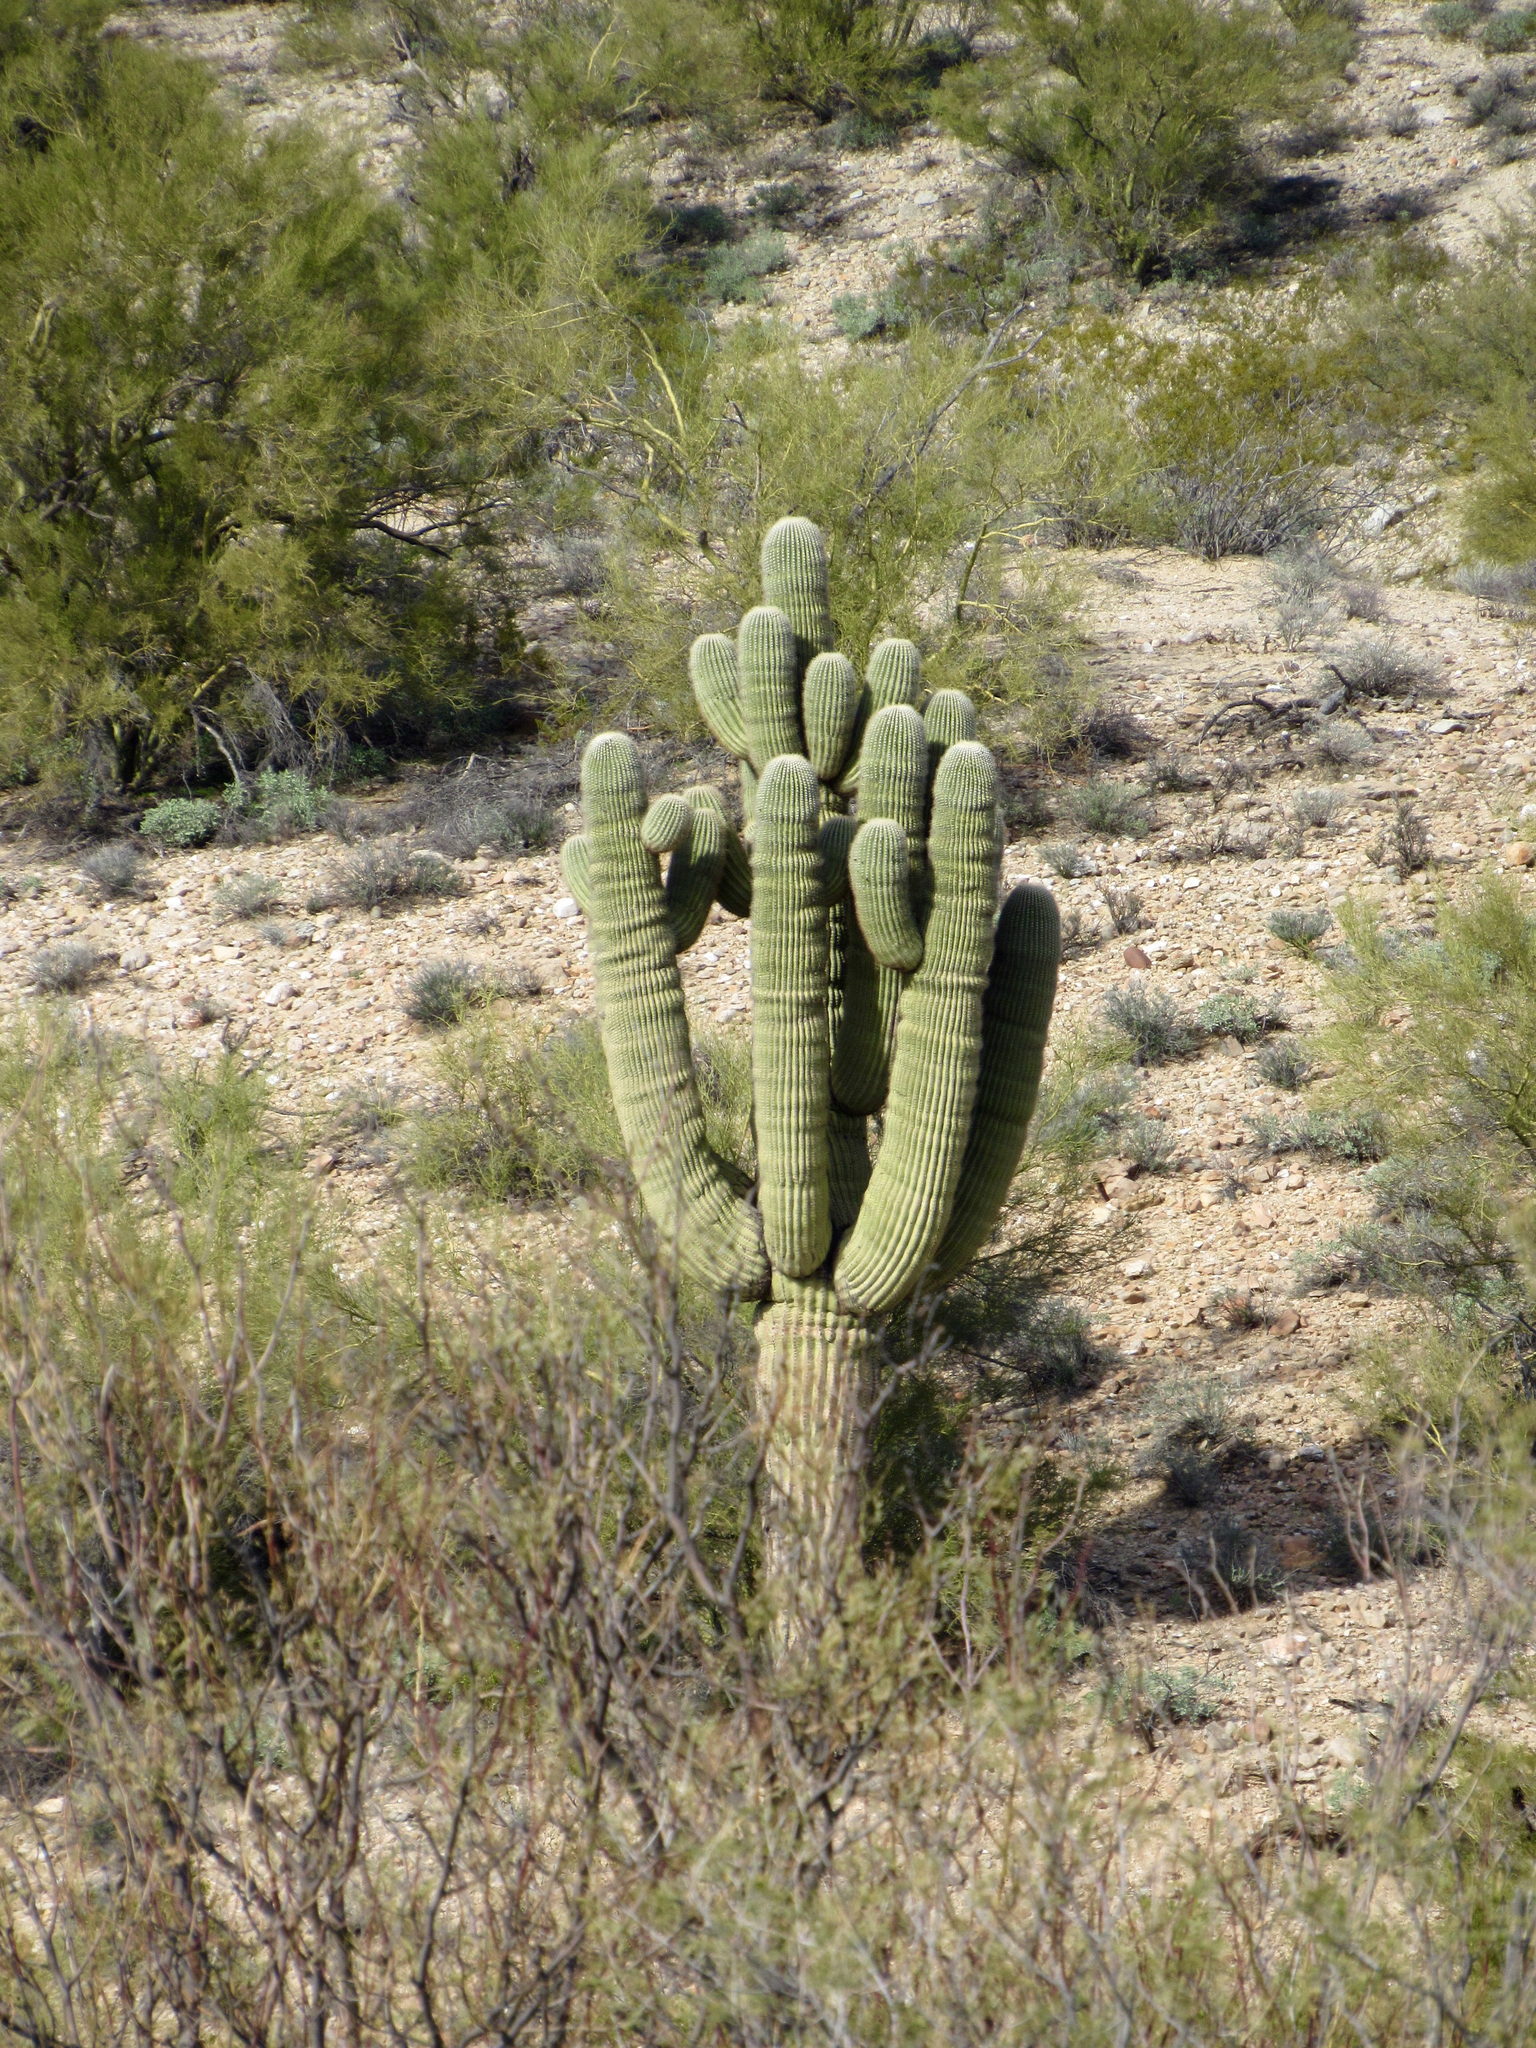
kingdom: Plantae
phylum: Tracheophyta
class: Magnoliopsida
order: Caryophyllales
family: Cactaceae
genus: Carnegiea
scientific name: Carnegiea gigantea
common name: Saguaro
